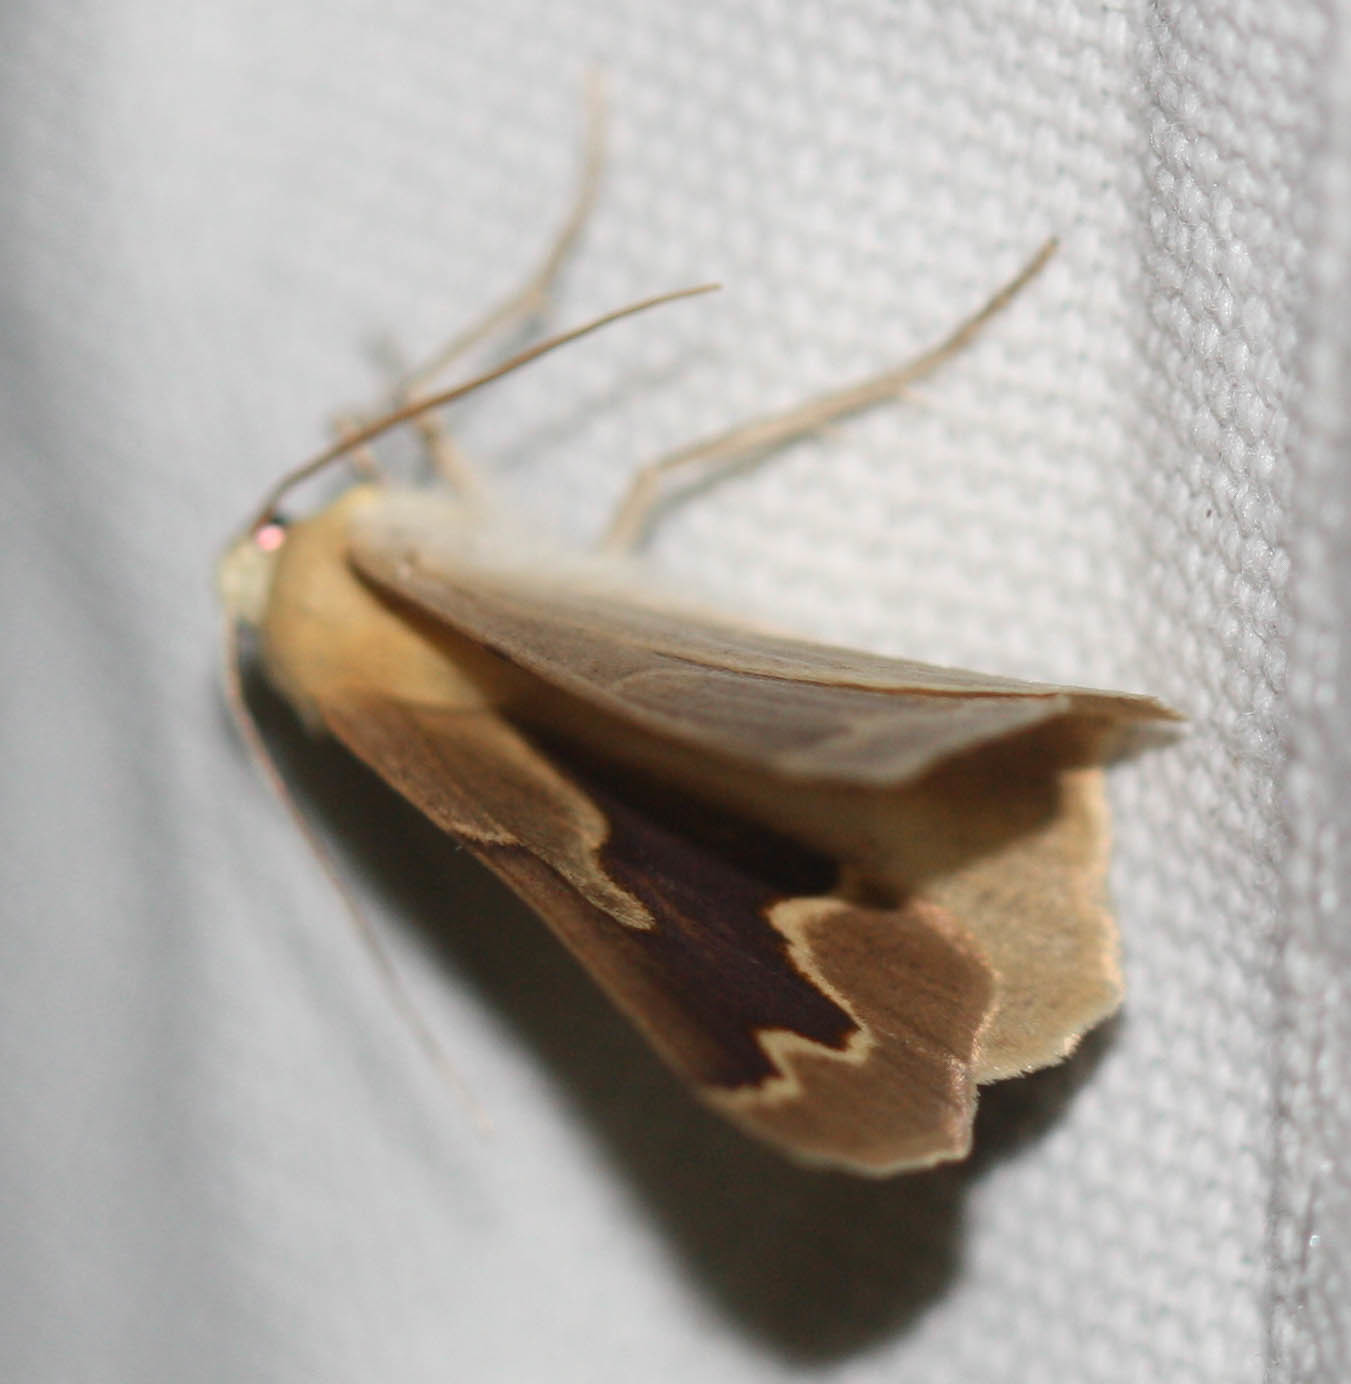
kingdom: Animalia
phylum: Arthropoda
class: Insecta
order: Lepidoptera
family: Geometridae
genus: Sabulodes
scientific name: Sabulodes edwardsata
